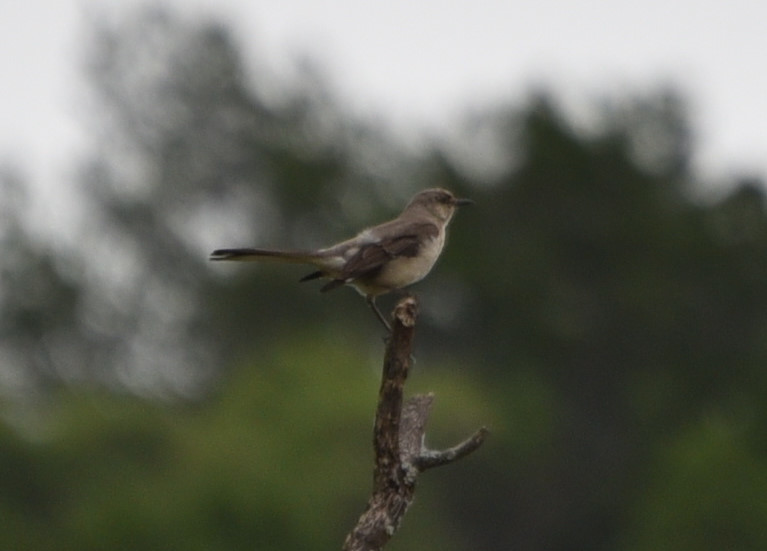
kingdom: Animalia
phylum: Chordata
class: Aves
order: Passeriformes
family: Mimidae
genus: Mimus
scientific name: Mimus polyglottos
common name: Northern mockingbird
